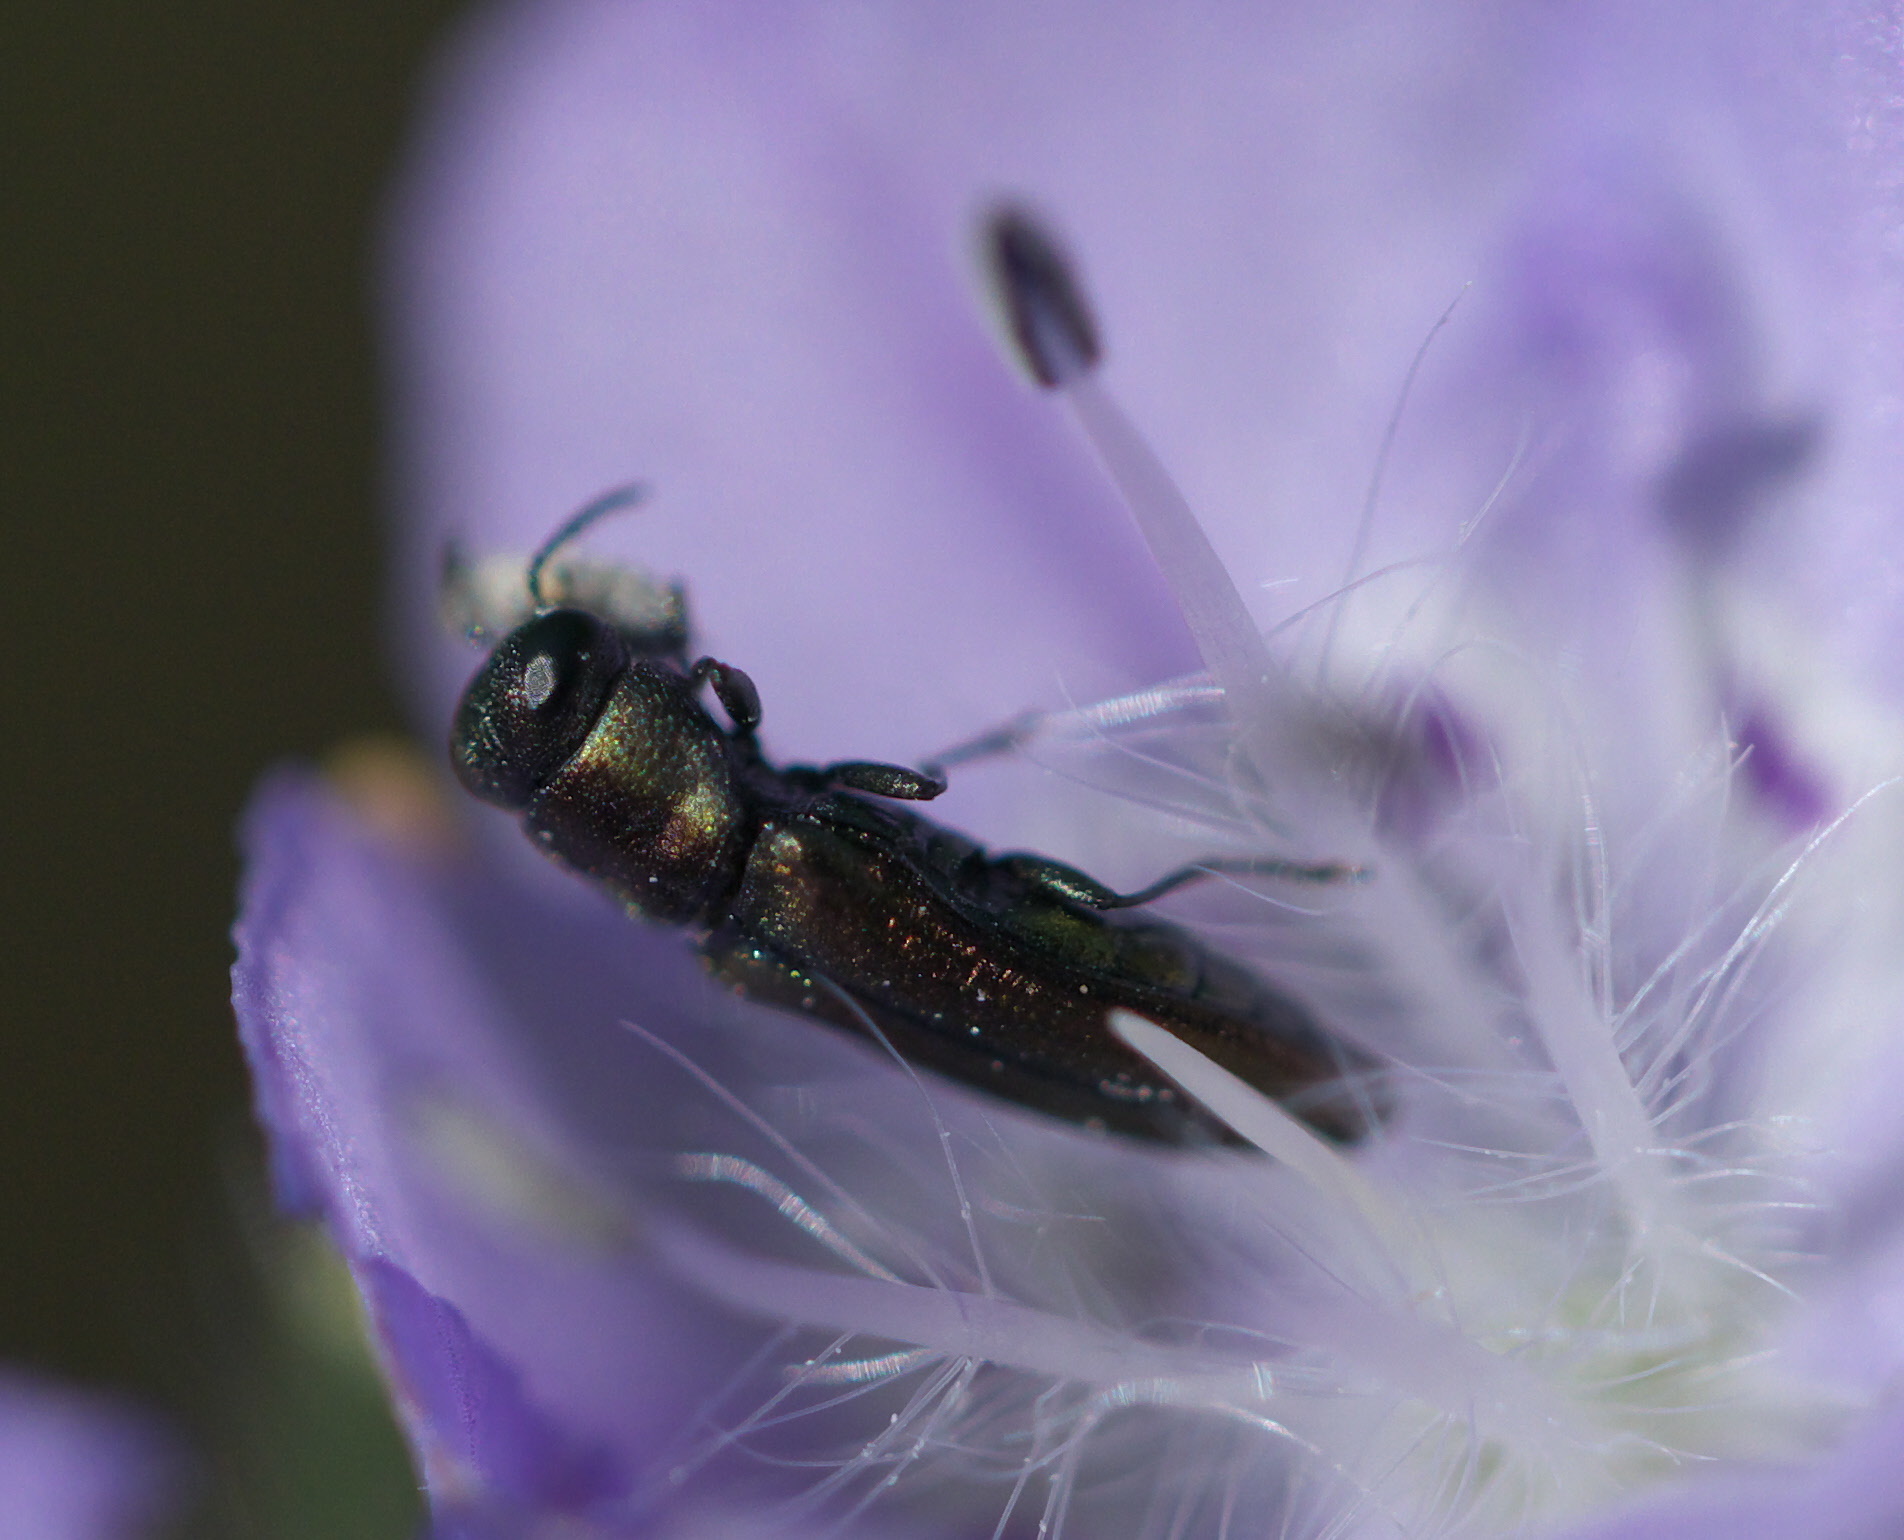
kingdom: Animalia
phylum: Arthropoda
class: Insecta
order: Coleoptera
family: Buprestidae
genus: Agrilaxia
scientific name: Agrilaxia flavimana
